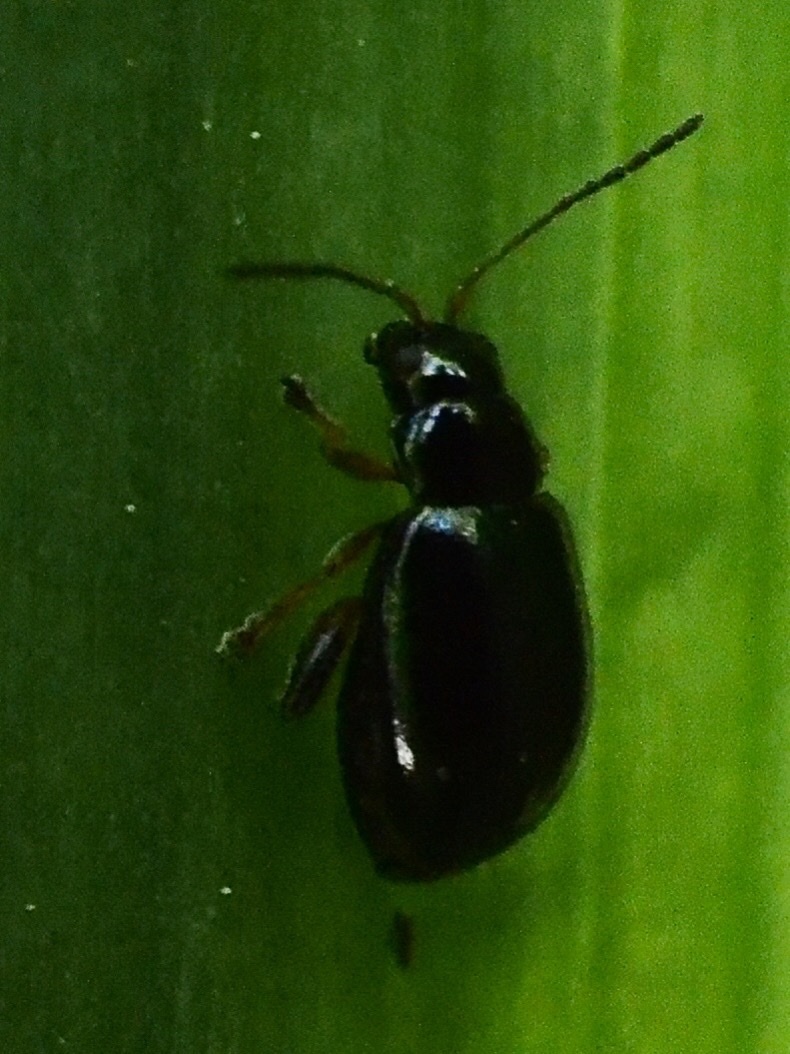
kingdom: Animalia
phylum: Arthropoda
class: Insecta
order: Coleoptera
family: Chrysomelidae
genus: Aphthona
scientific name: Aphthona
